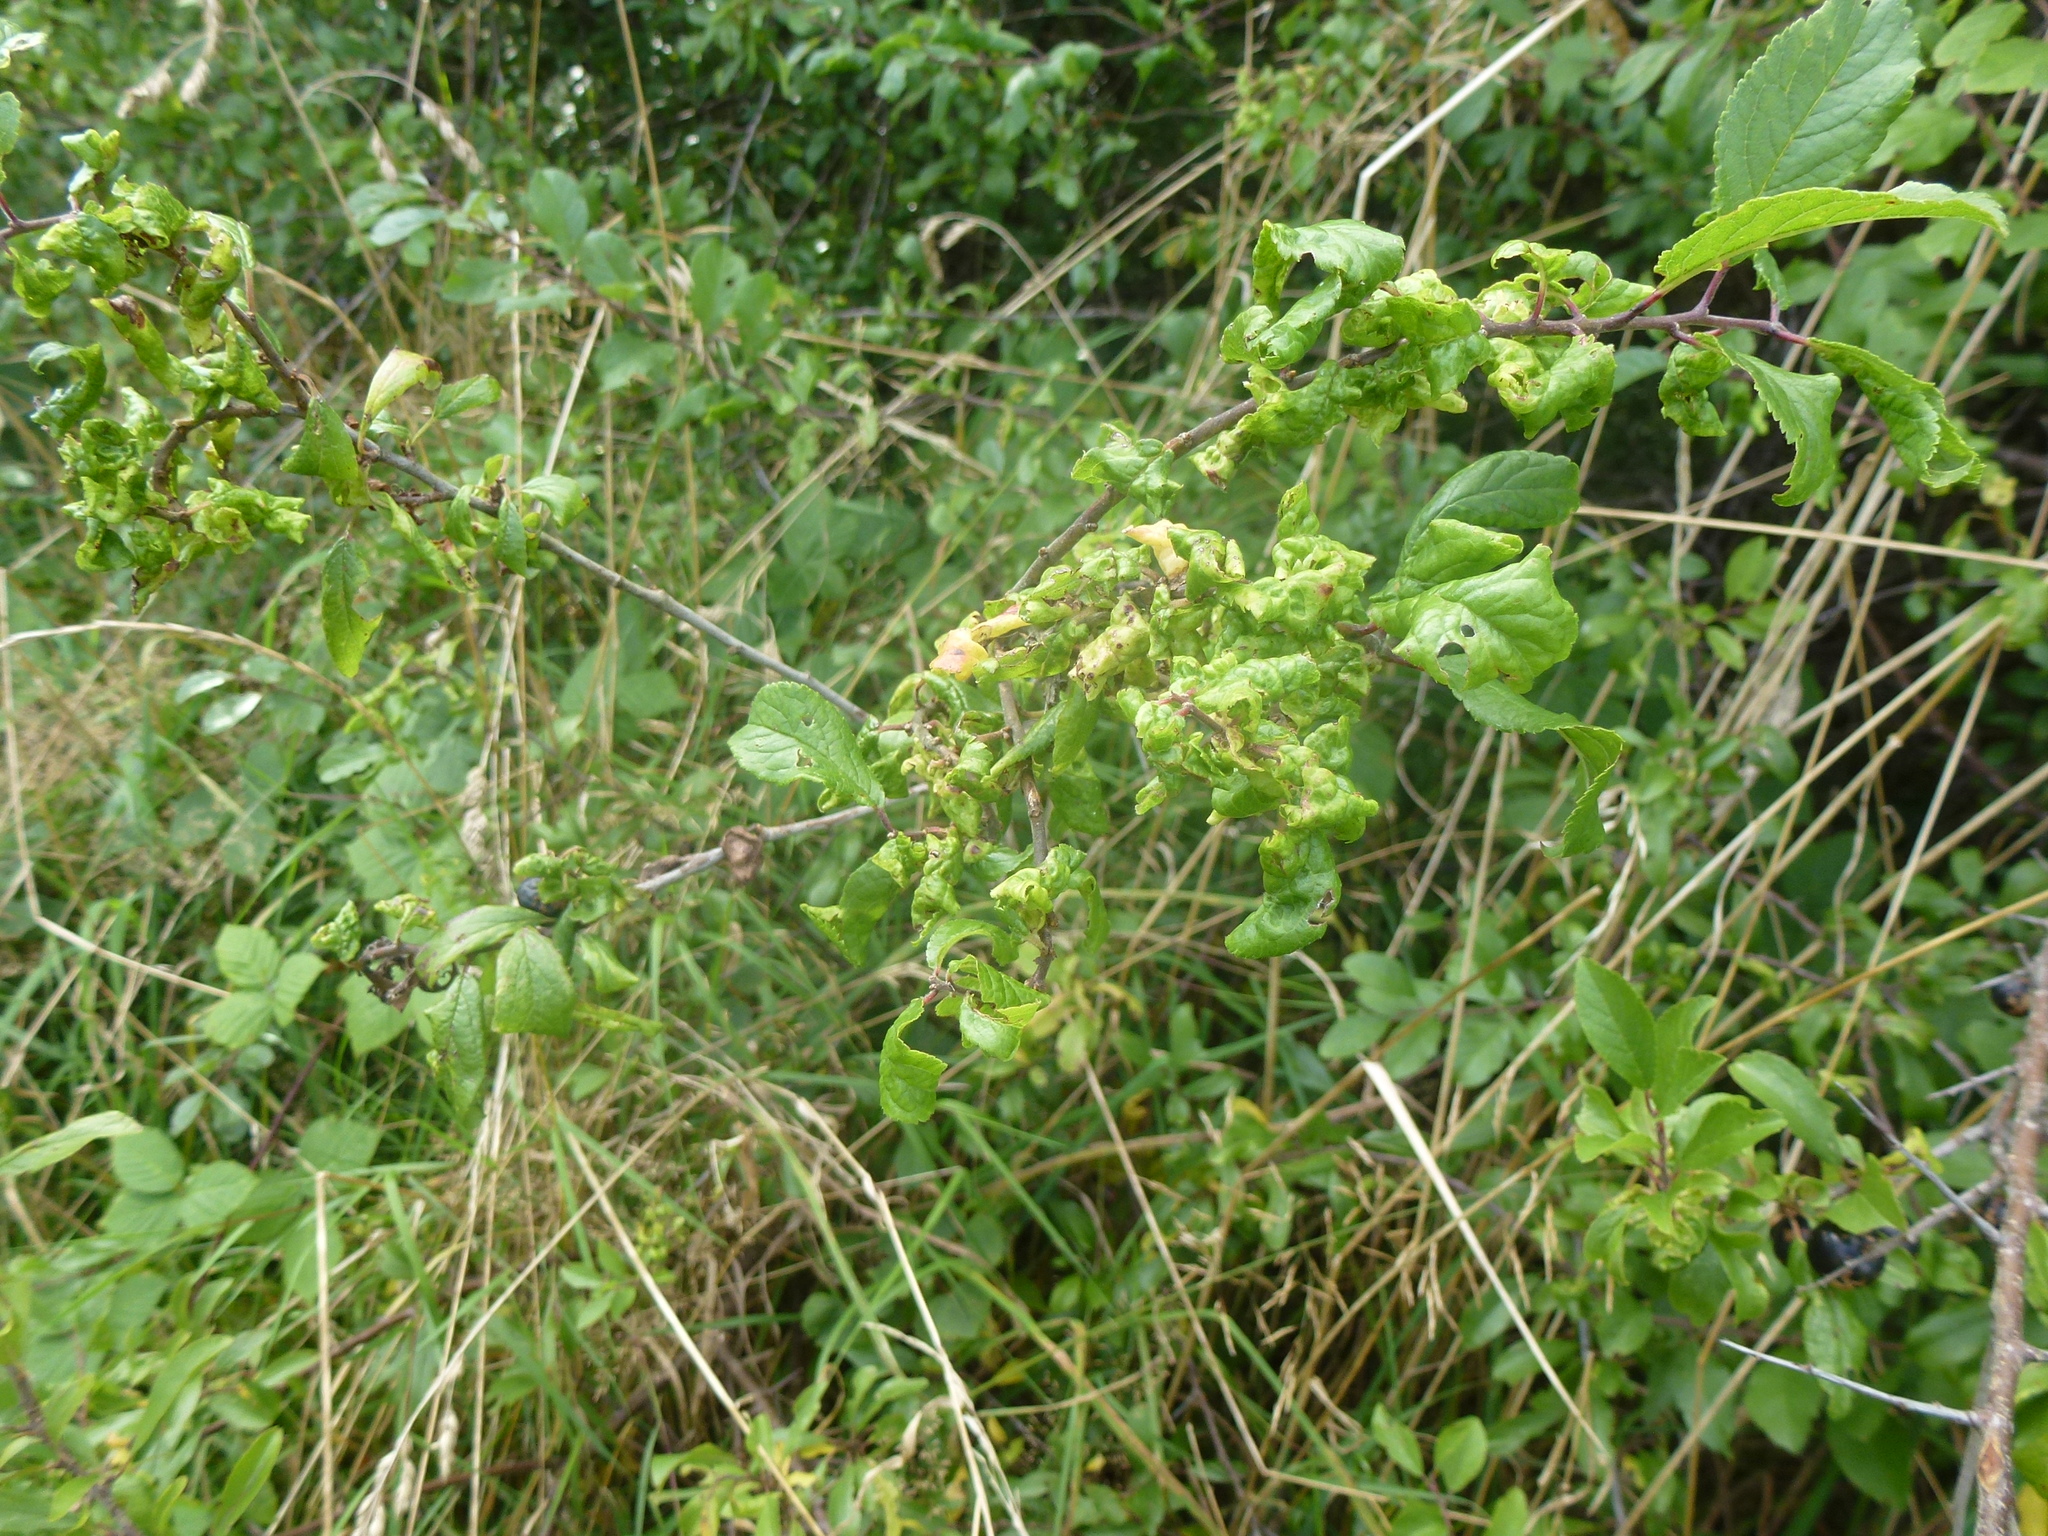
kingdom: Animalia
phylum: Arthropoda
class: Insecta
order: Hemiptera
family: Aphididae
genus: Hyalopterus
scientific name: Hyalopterus pruni
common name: Mealy plum aphid
